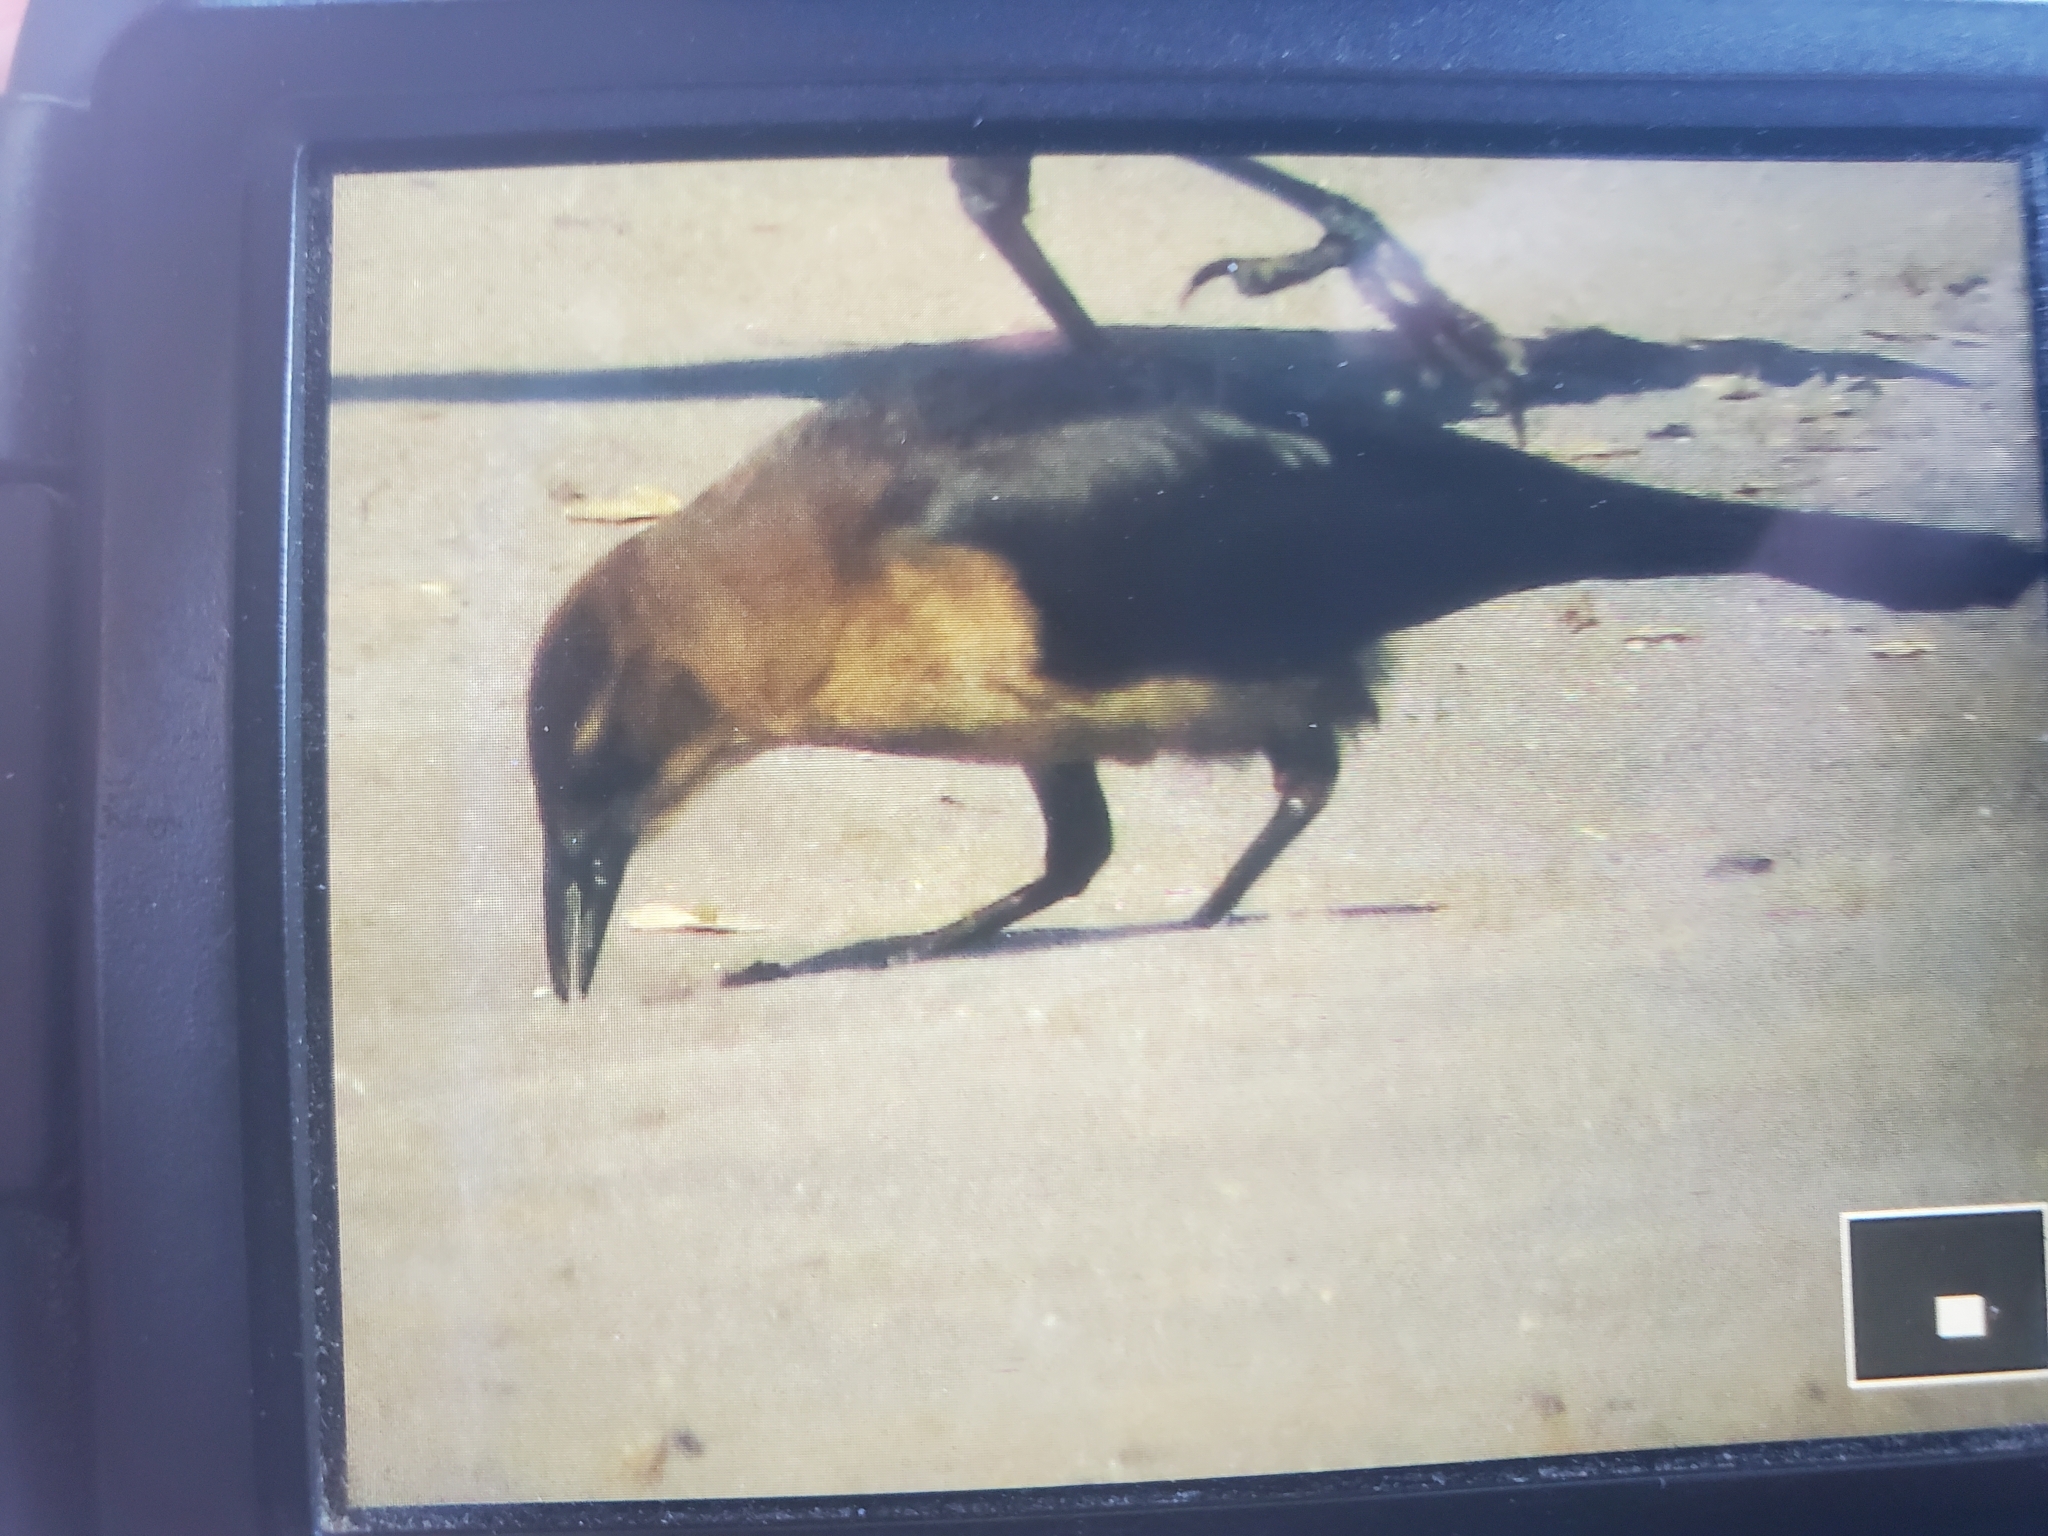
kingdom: Animalia
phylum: Chordata
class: Aves
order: Passeriformes
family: Icteridae
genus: Quiscalus
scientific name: Quiscalus major
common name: Boat-tailed grackle
